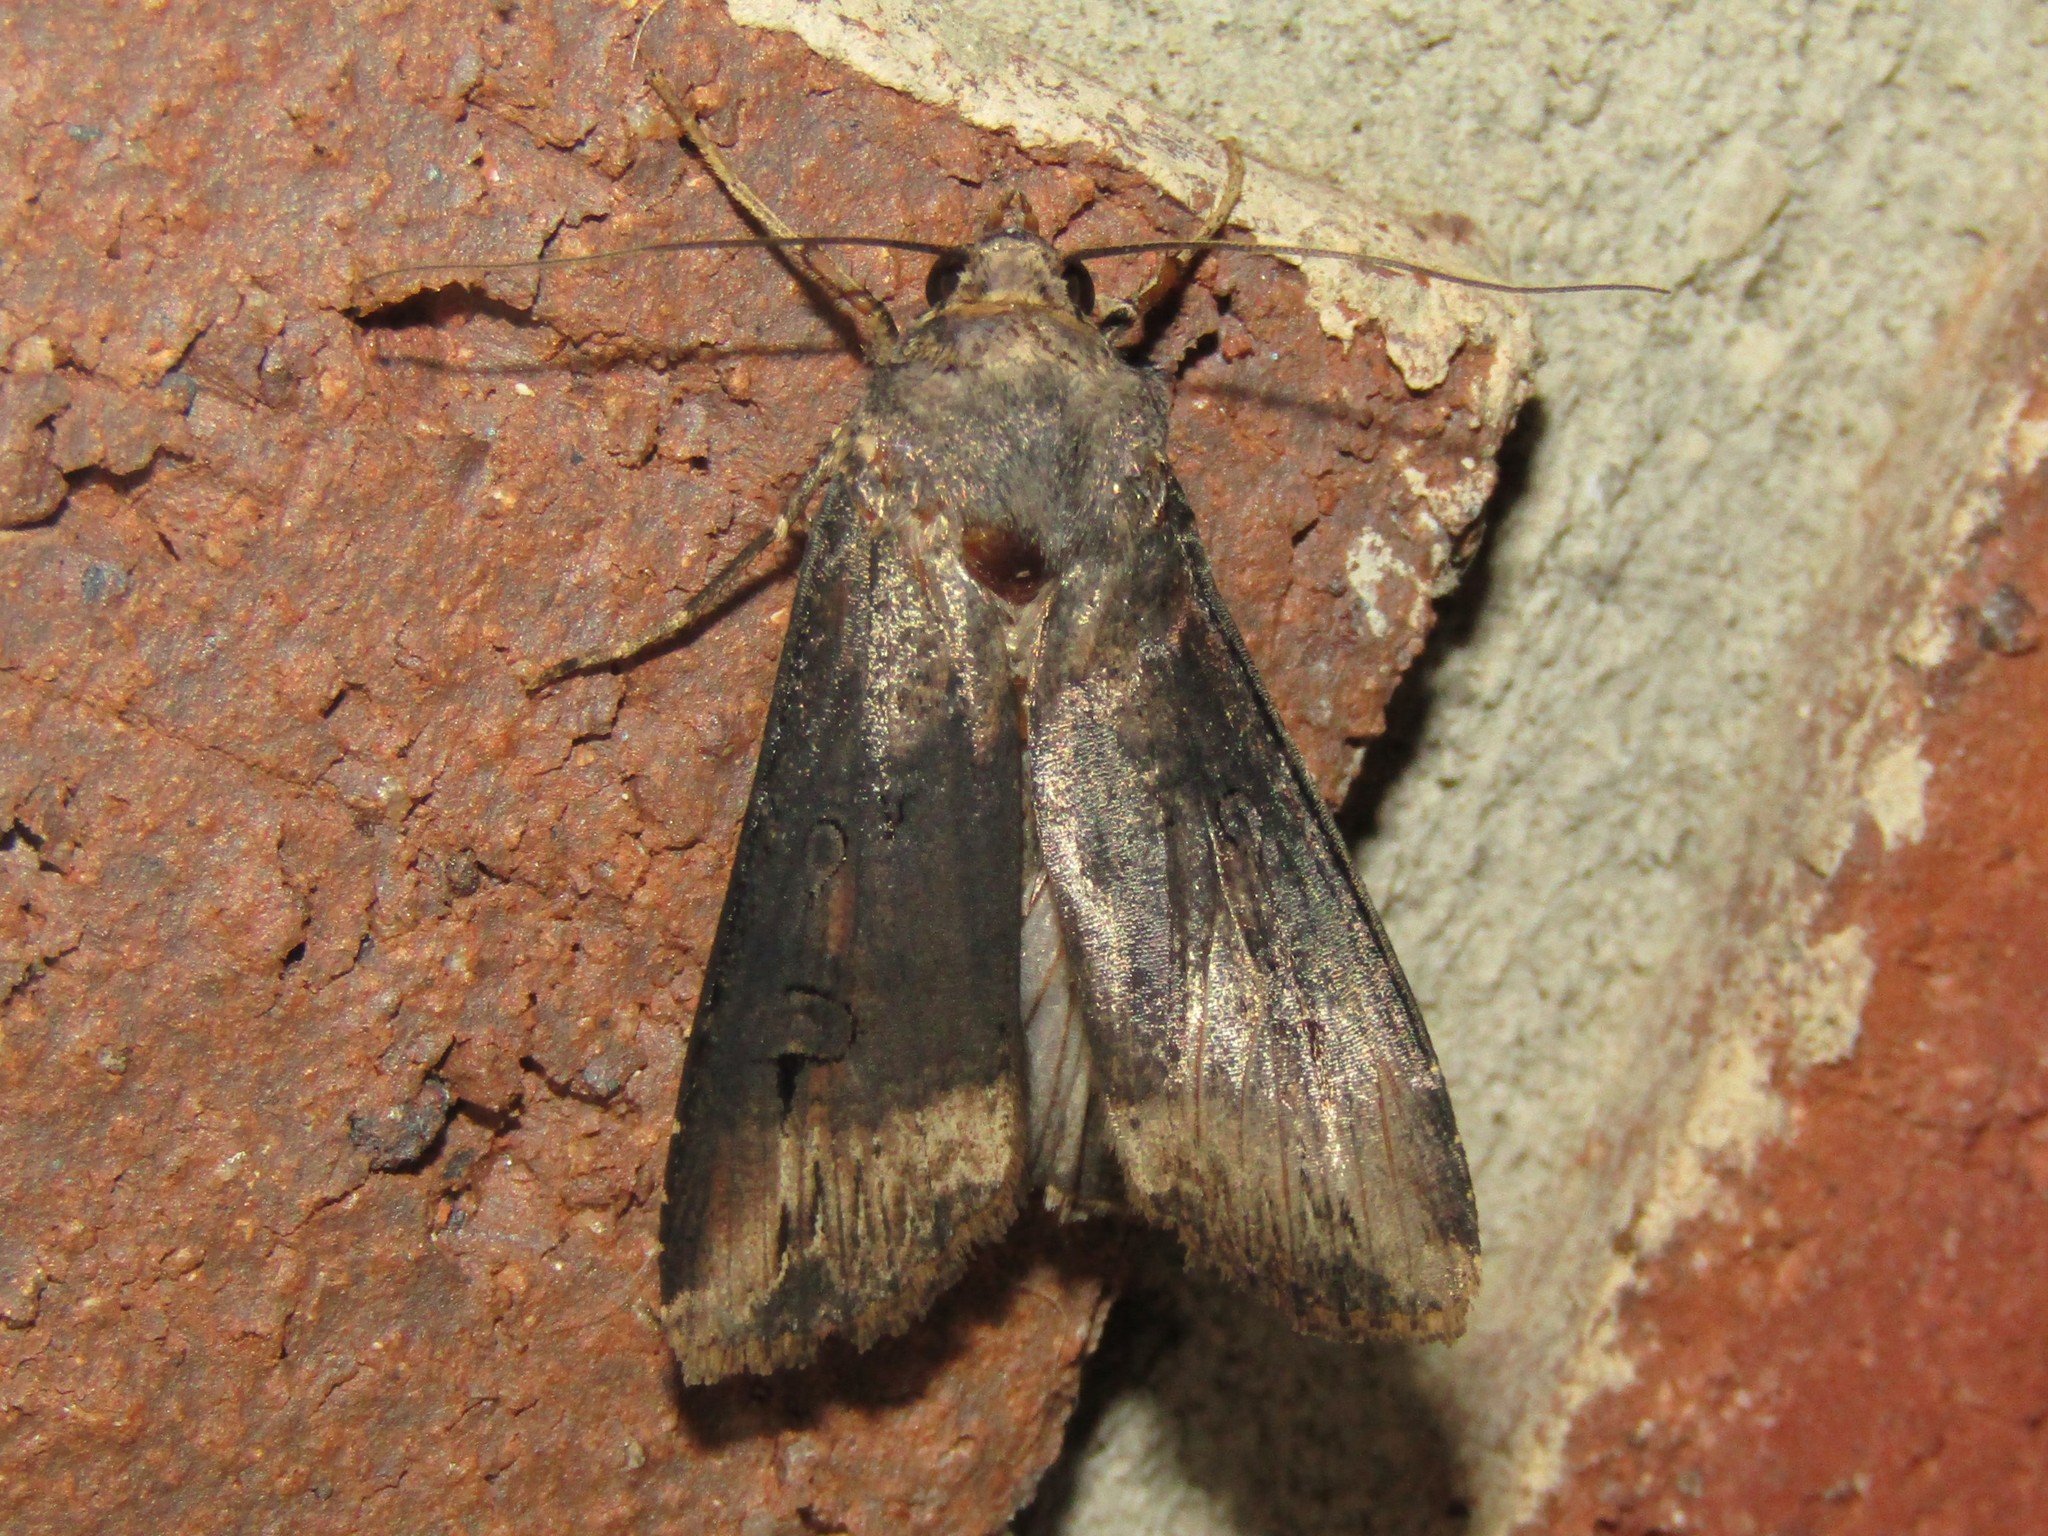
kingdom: Animalia
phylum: Arthropoda
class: Insecta
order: Lepidoptera
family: Noctuidae
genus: Agrotis
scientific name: Agrotis ipsilon
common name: Dark sword-grass
